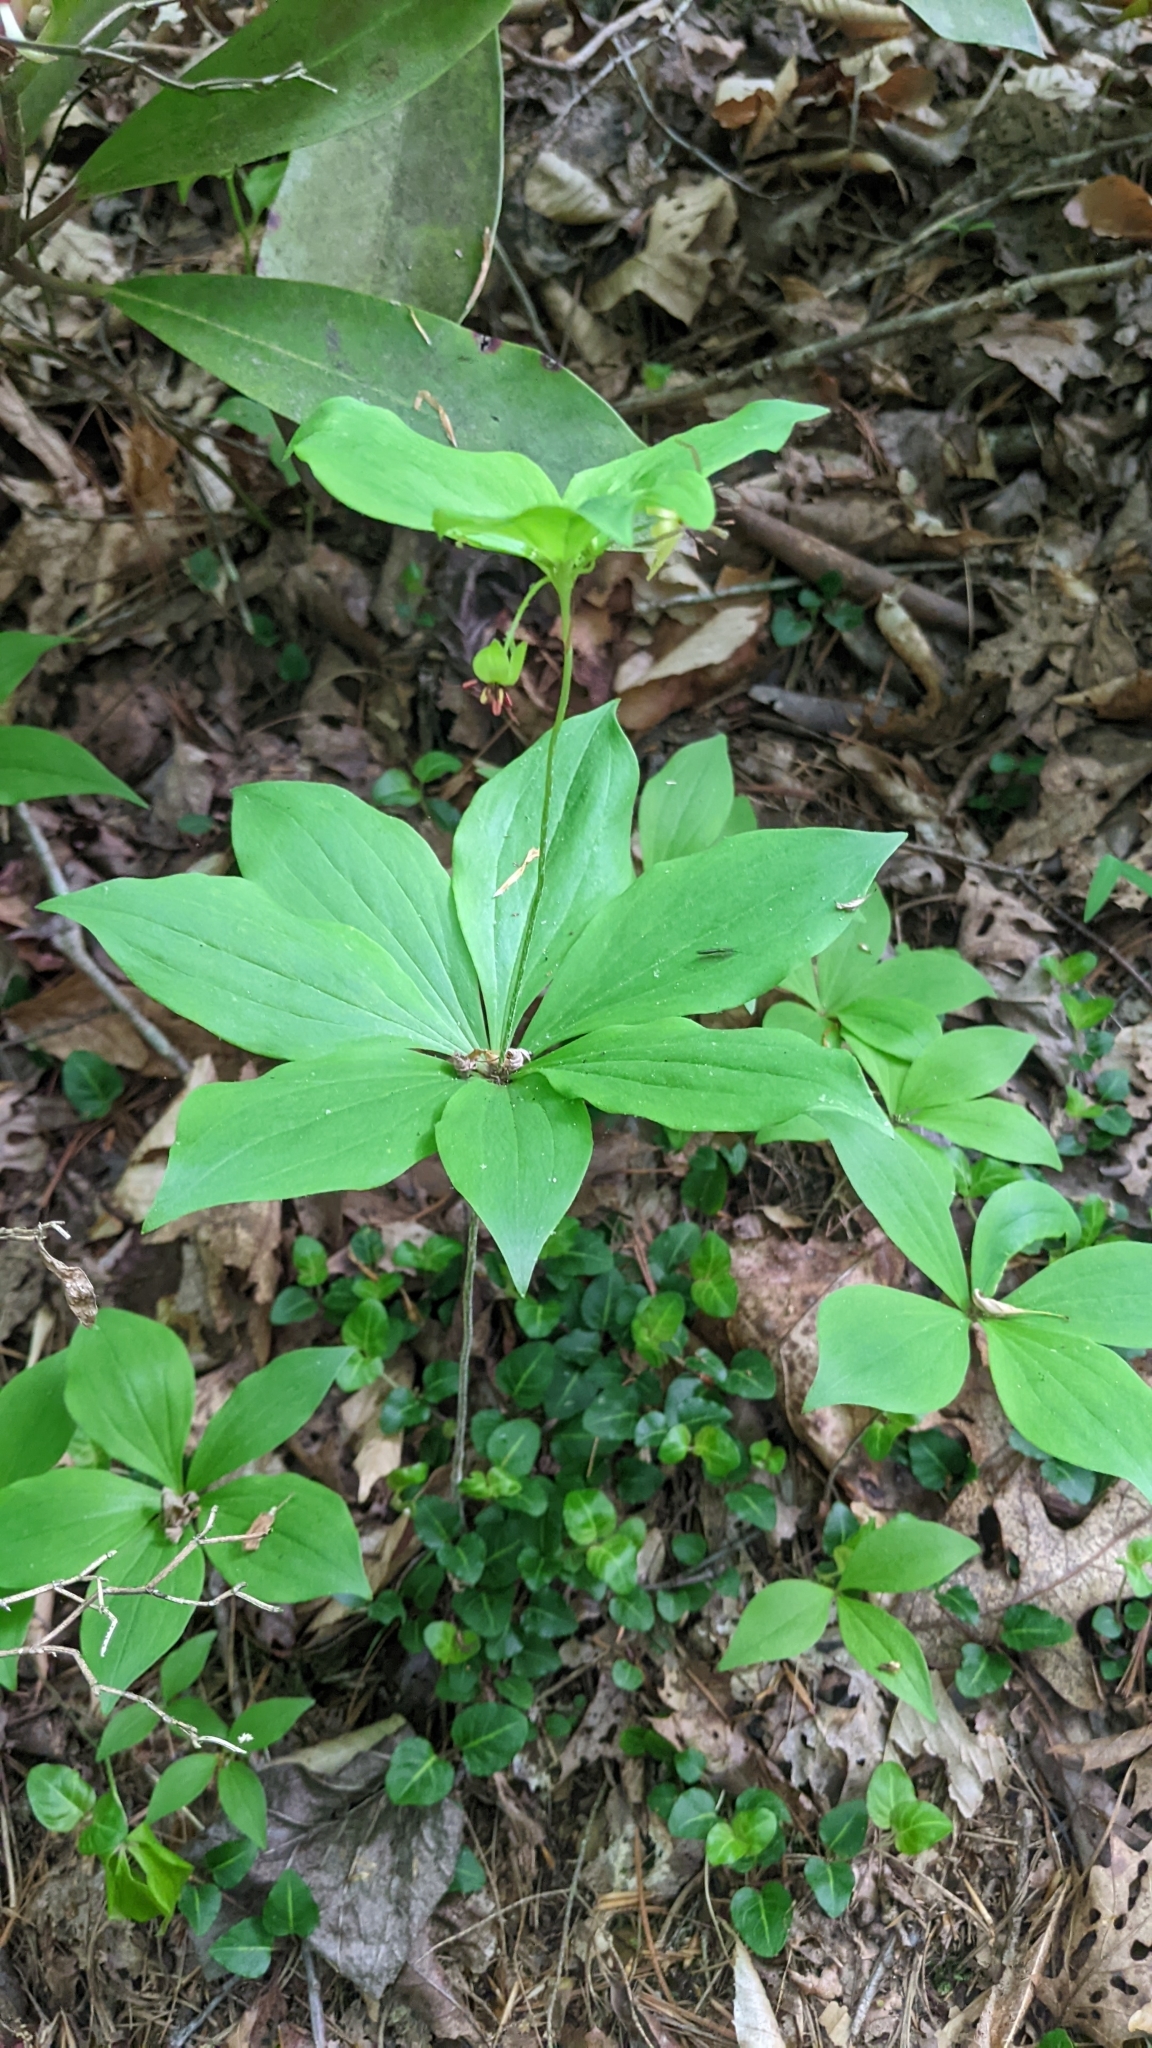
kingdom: Plantae
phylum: Tracheophyta
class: Liliopsida
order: Liliales
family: Liliaceae
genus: Medeola
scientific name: Medeola virginiana
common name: Indian cucumber-root
